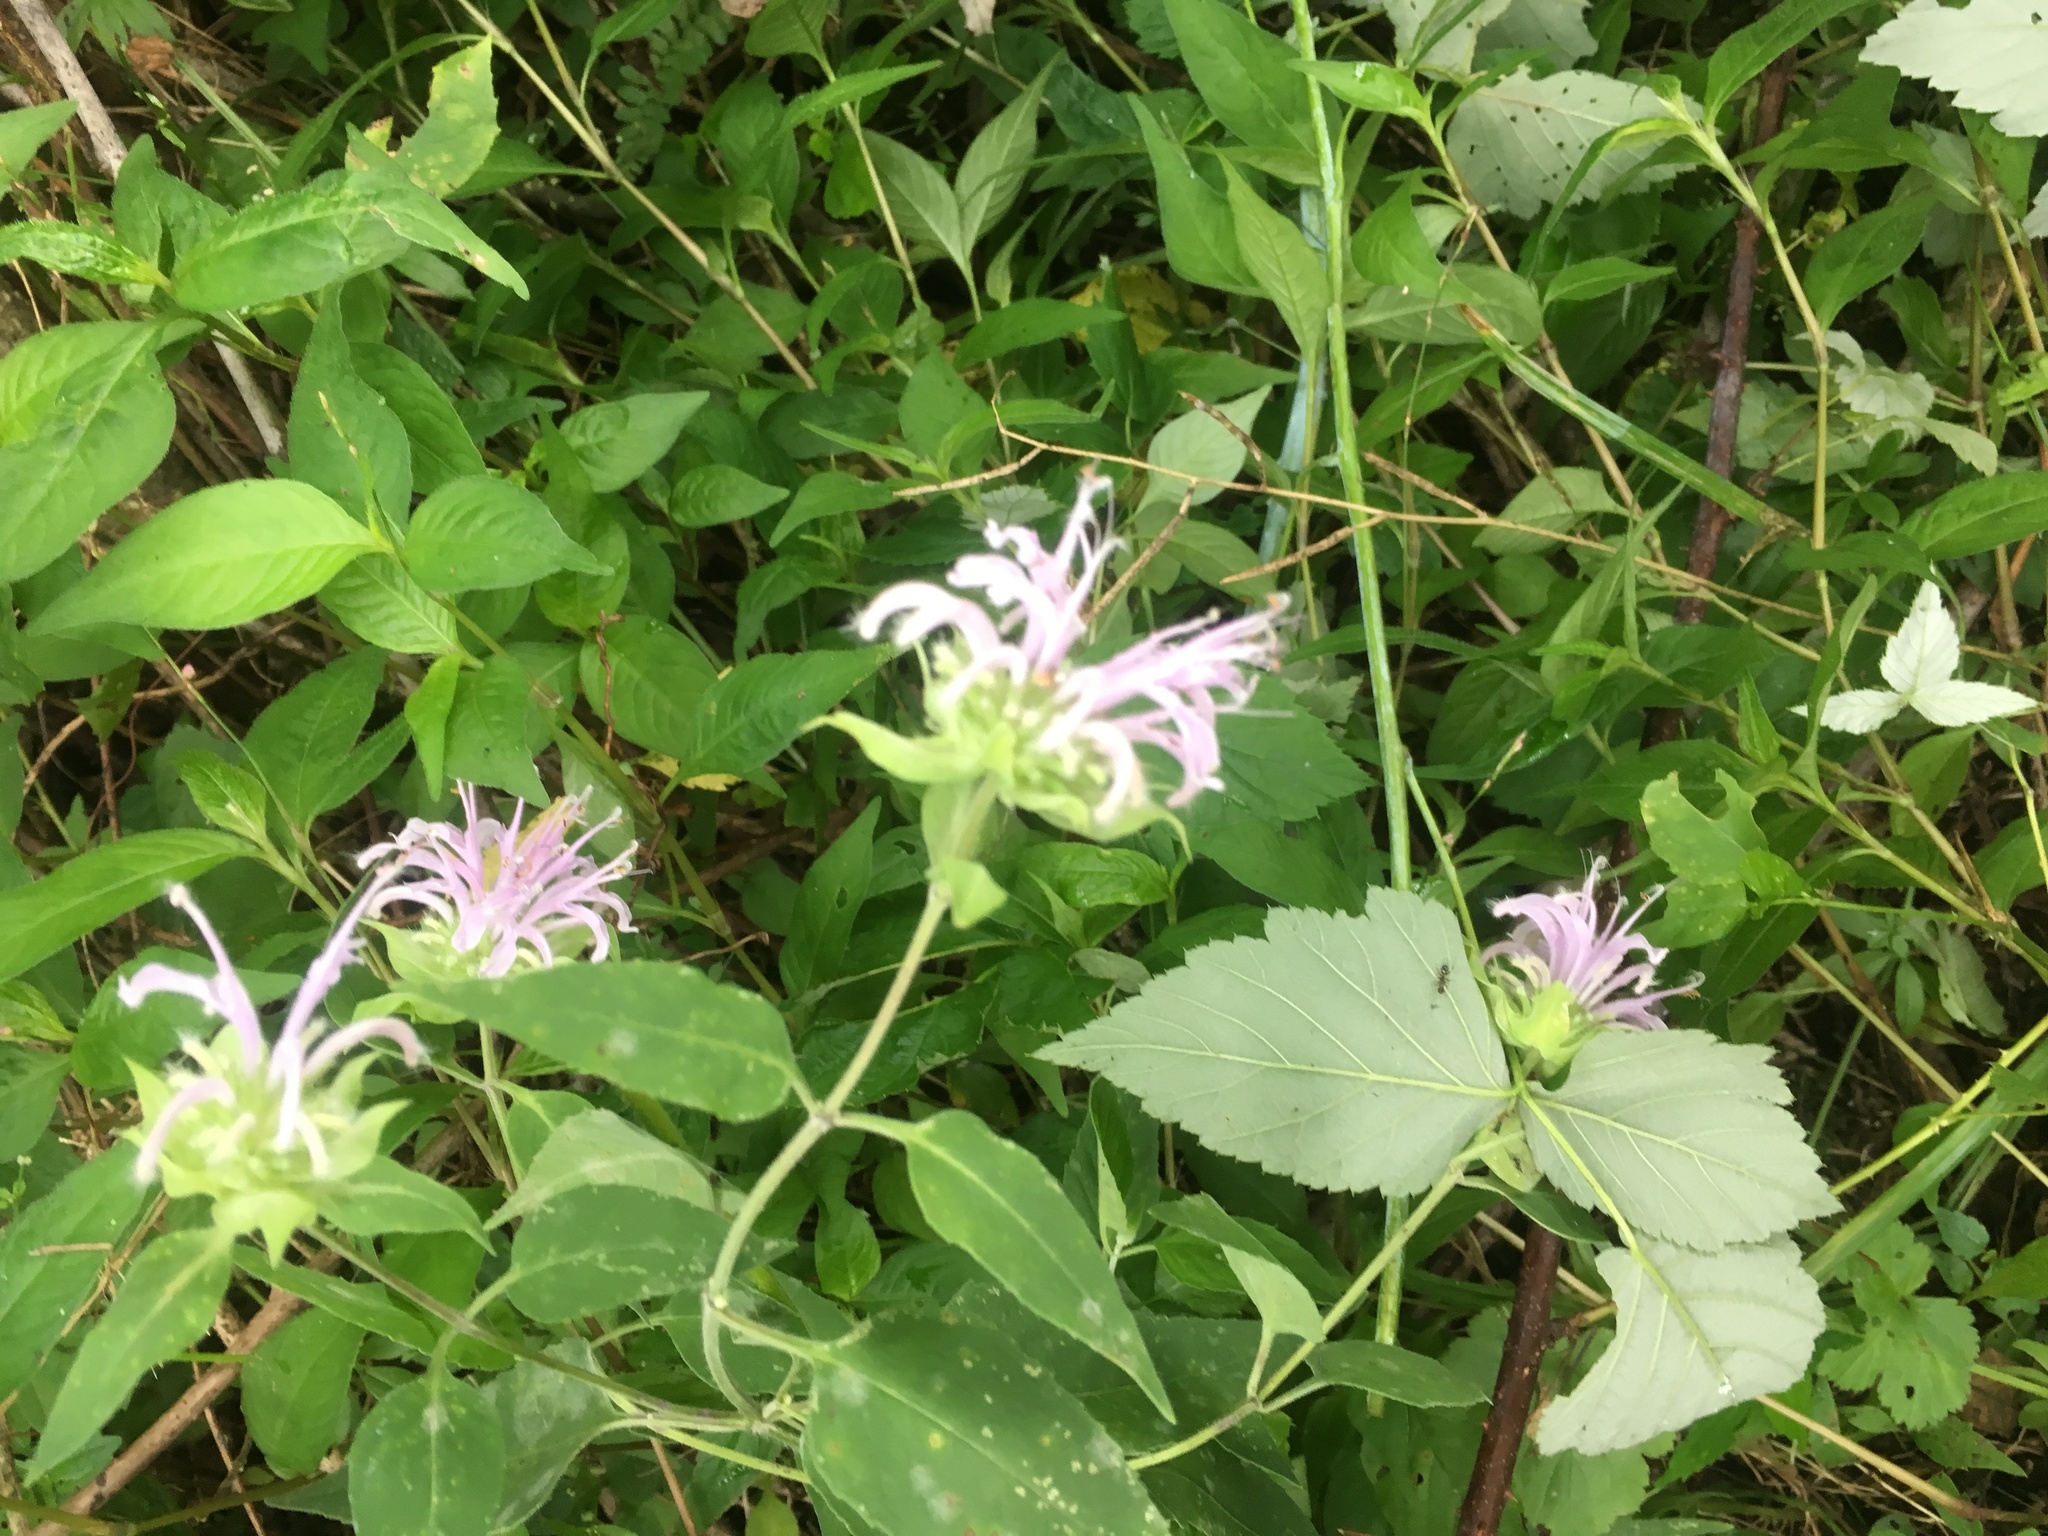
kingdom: Plantae
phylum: Tracheophyta
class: Magnoliopsida
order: Lamiales
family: Lamiaceae
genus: Monarda
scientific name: Monarda fistulosa
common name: Purple beebalm
